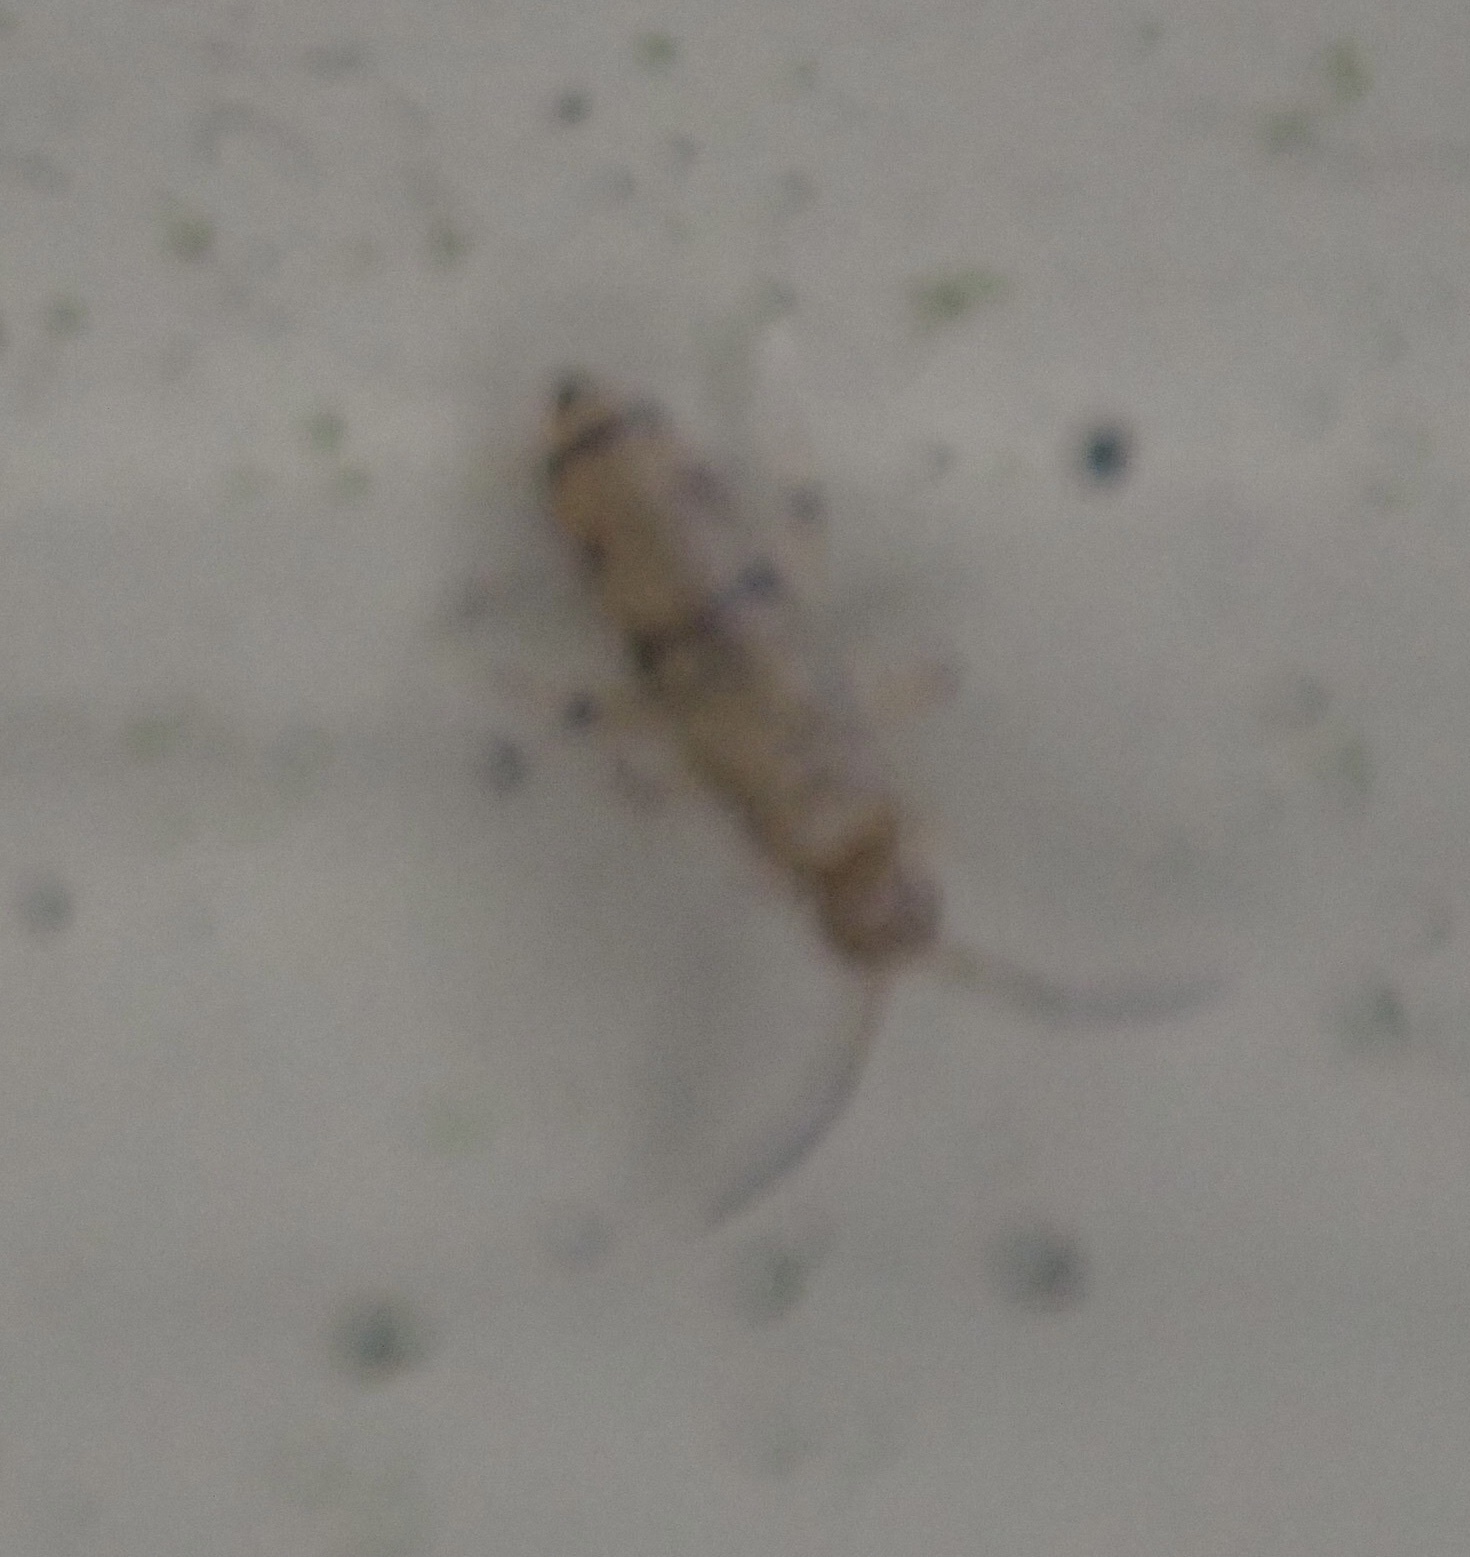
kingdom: Animalia
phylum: Arthropoda
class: Collembola
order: Entomobryomorpha
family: Entomobryidae
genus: Willowsia
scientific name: Willowsia nigromaculata
